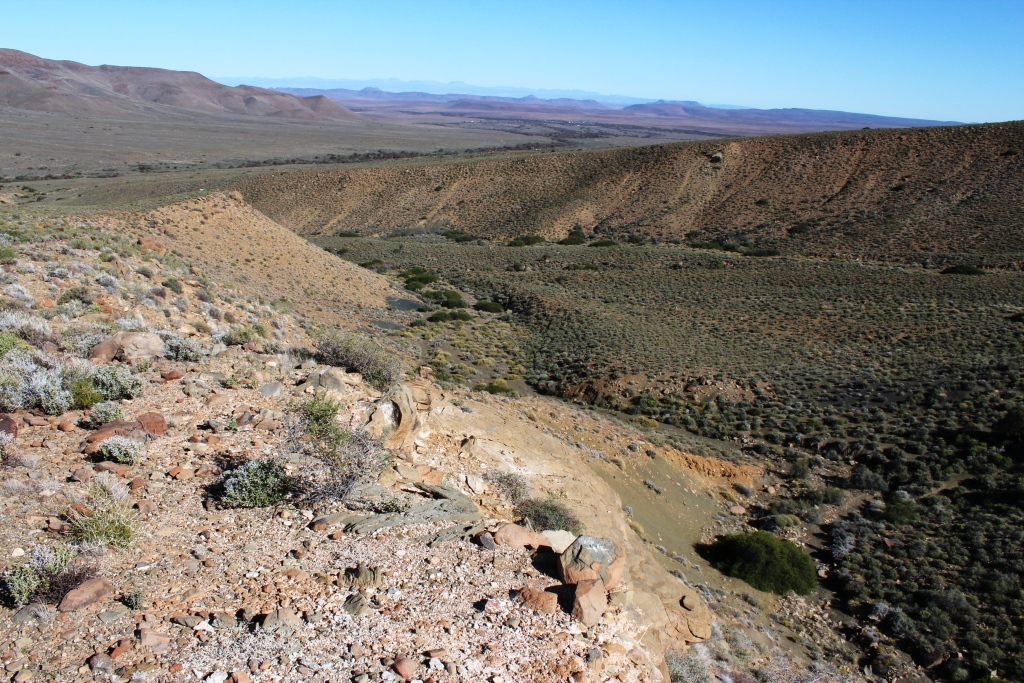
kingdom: Plantae
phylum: Tracheophyta
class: Magnoliopsida
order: Asterales
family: Asteraceae
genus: Pteronia
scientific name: Pteronia incana
